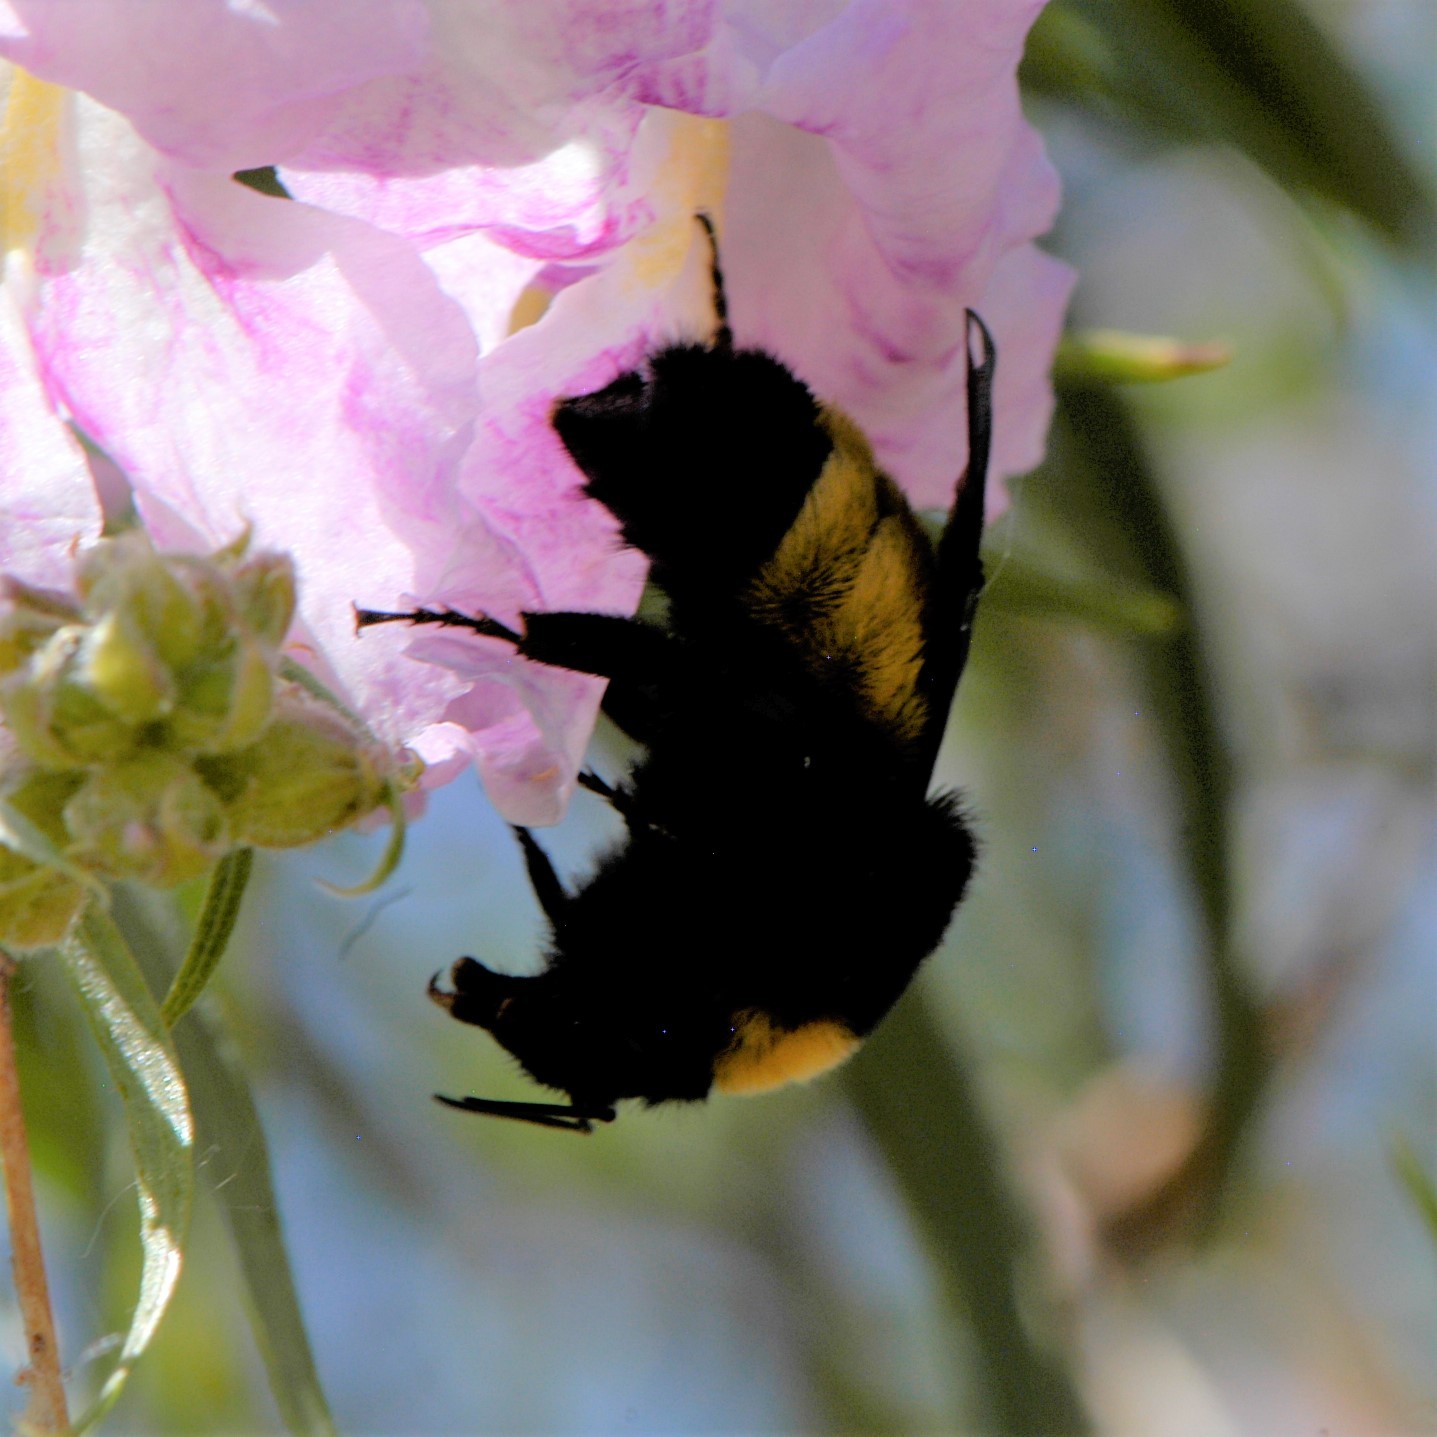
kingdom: Animalia
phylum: Arthropoda
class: Insecta
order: Hymenoptera
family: Apidae
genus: Bombus
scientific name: Bombus pensylvanicus
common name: Bumble bee
